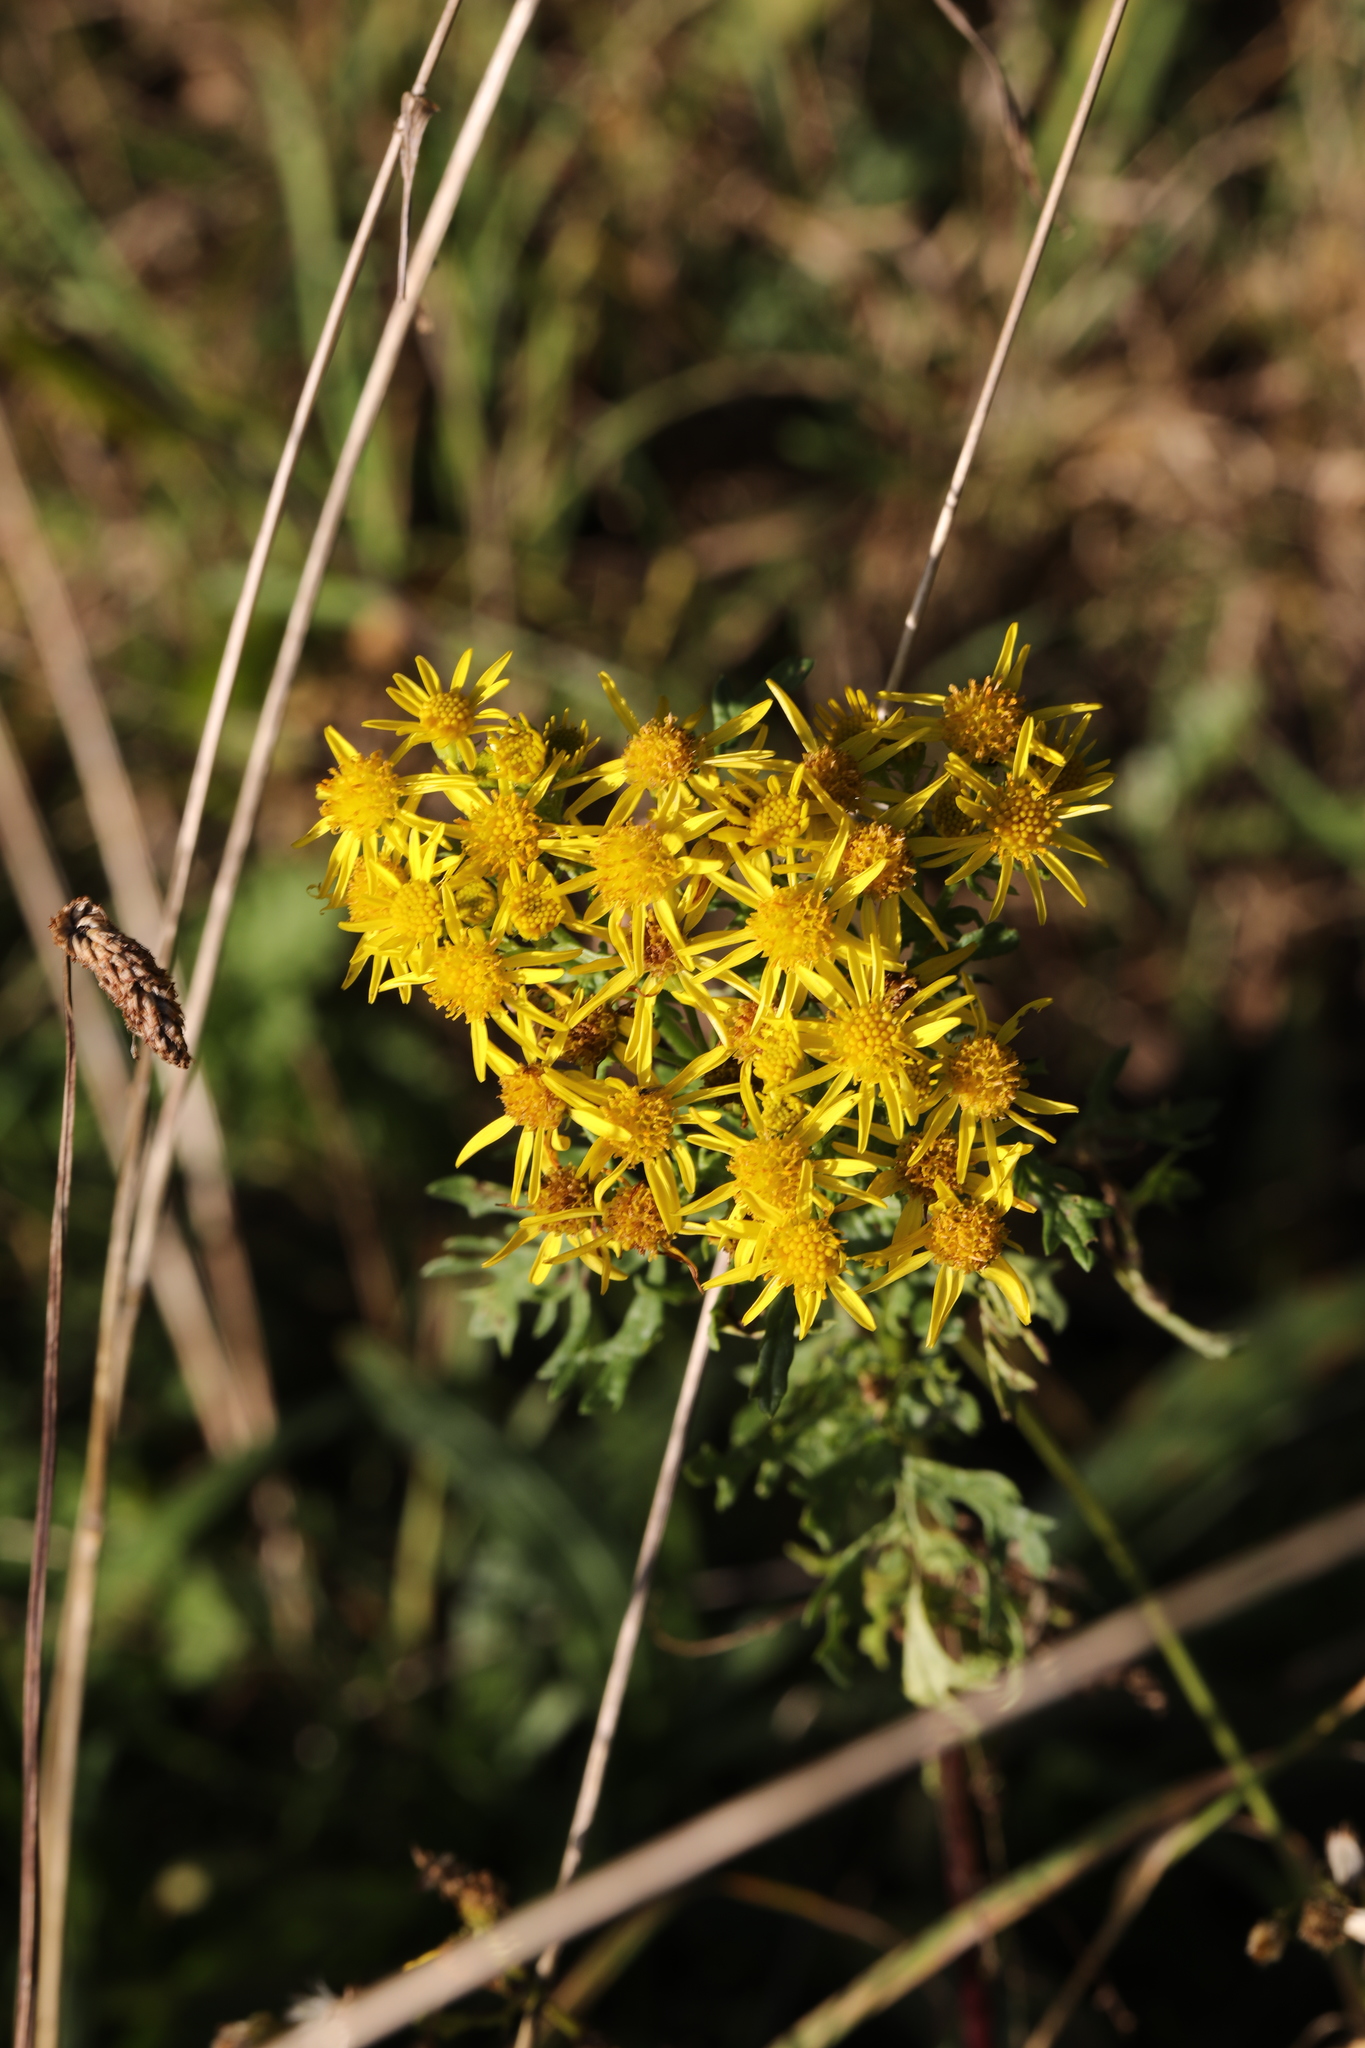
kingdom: Plantae
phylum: Tracheophyta
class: Magnoliopsida
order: Asterales
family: Asteraceae
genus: Jacobaea
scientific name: Jacobaea vulgaris
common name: Stinking willie
